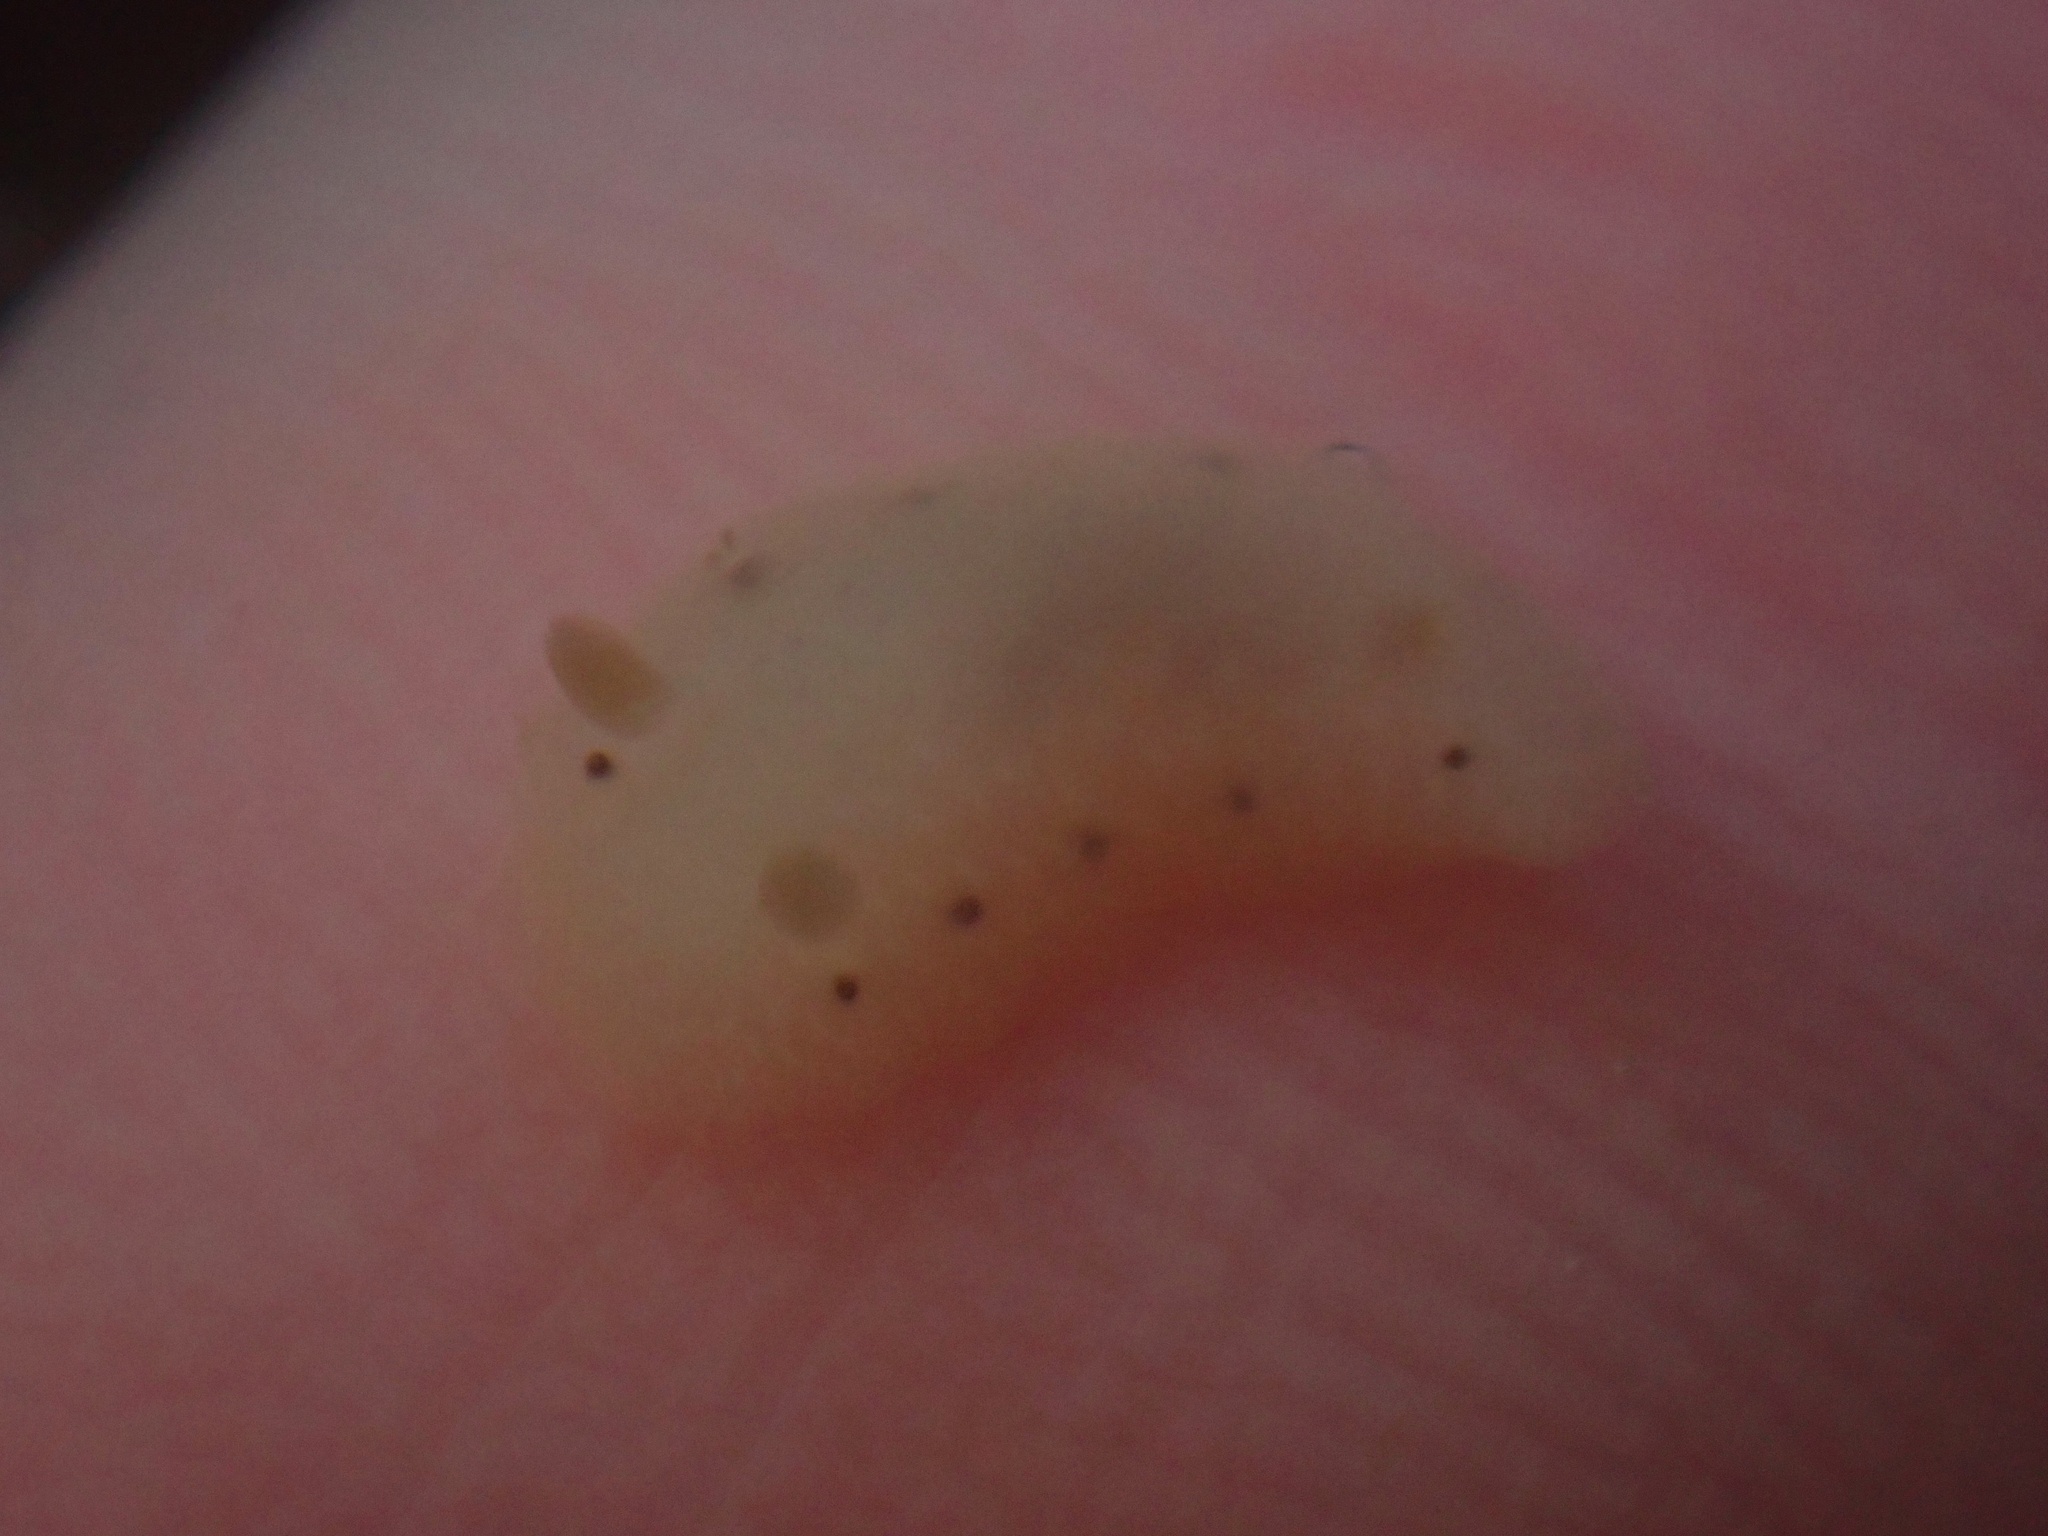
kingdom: Animalia
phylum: Mollusca
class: Gastropoda
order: Nudibranchia
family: Cadlinidae
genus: Cadlina
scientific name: Cadlina sparsa
